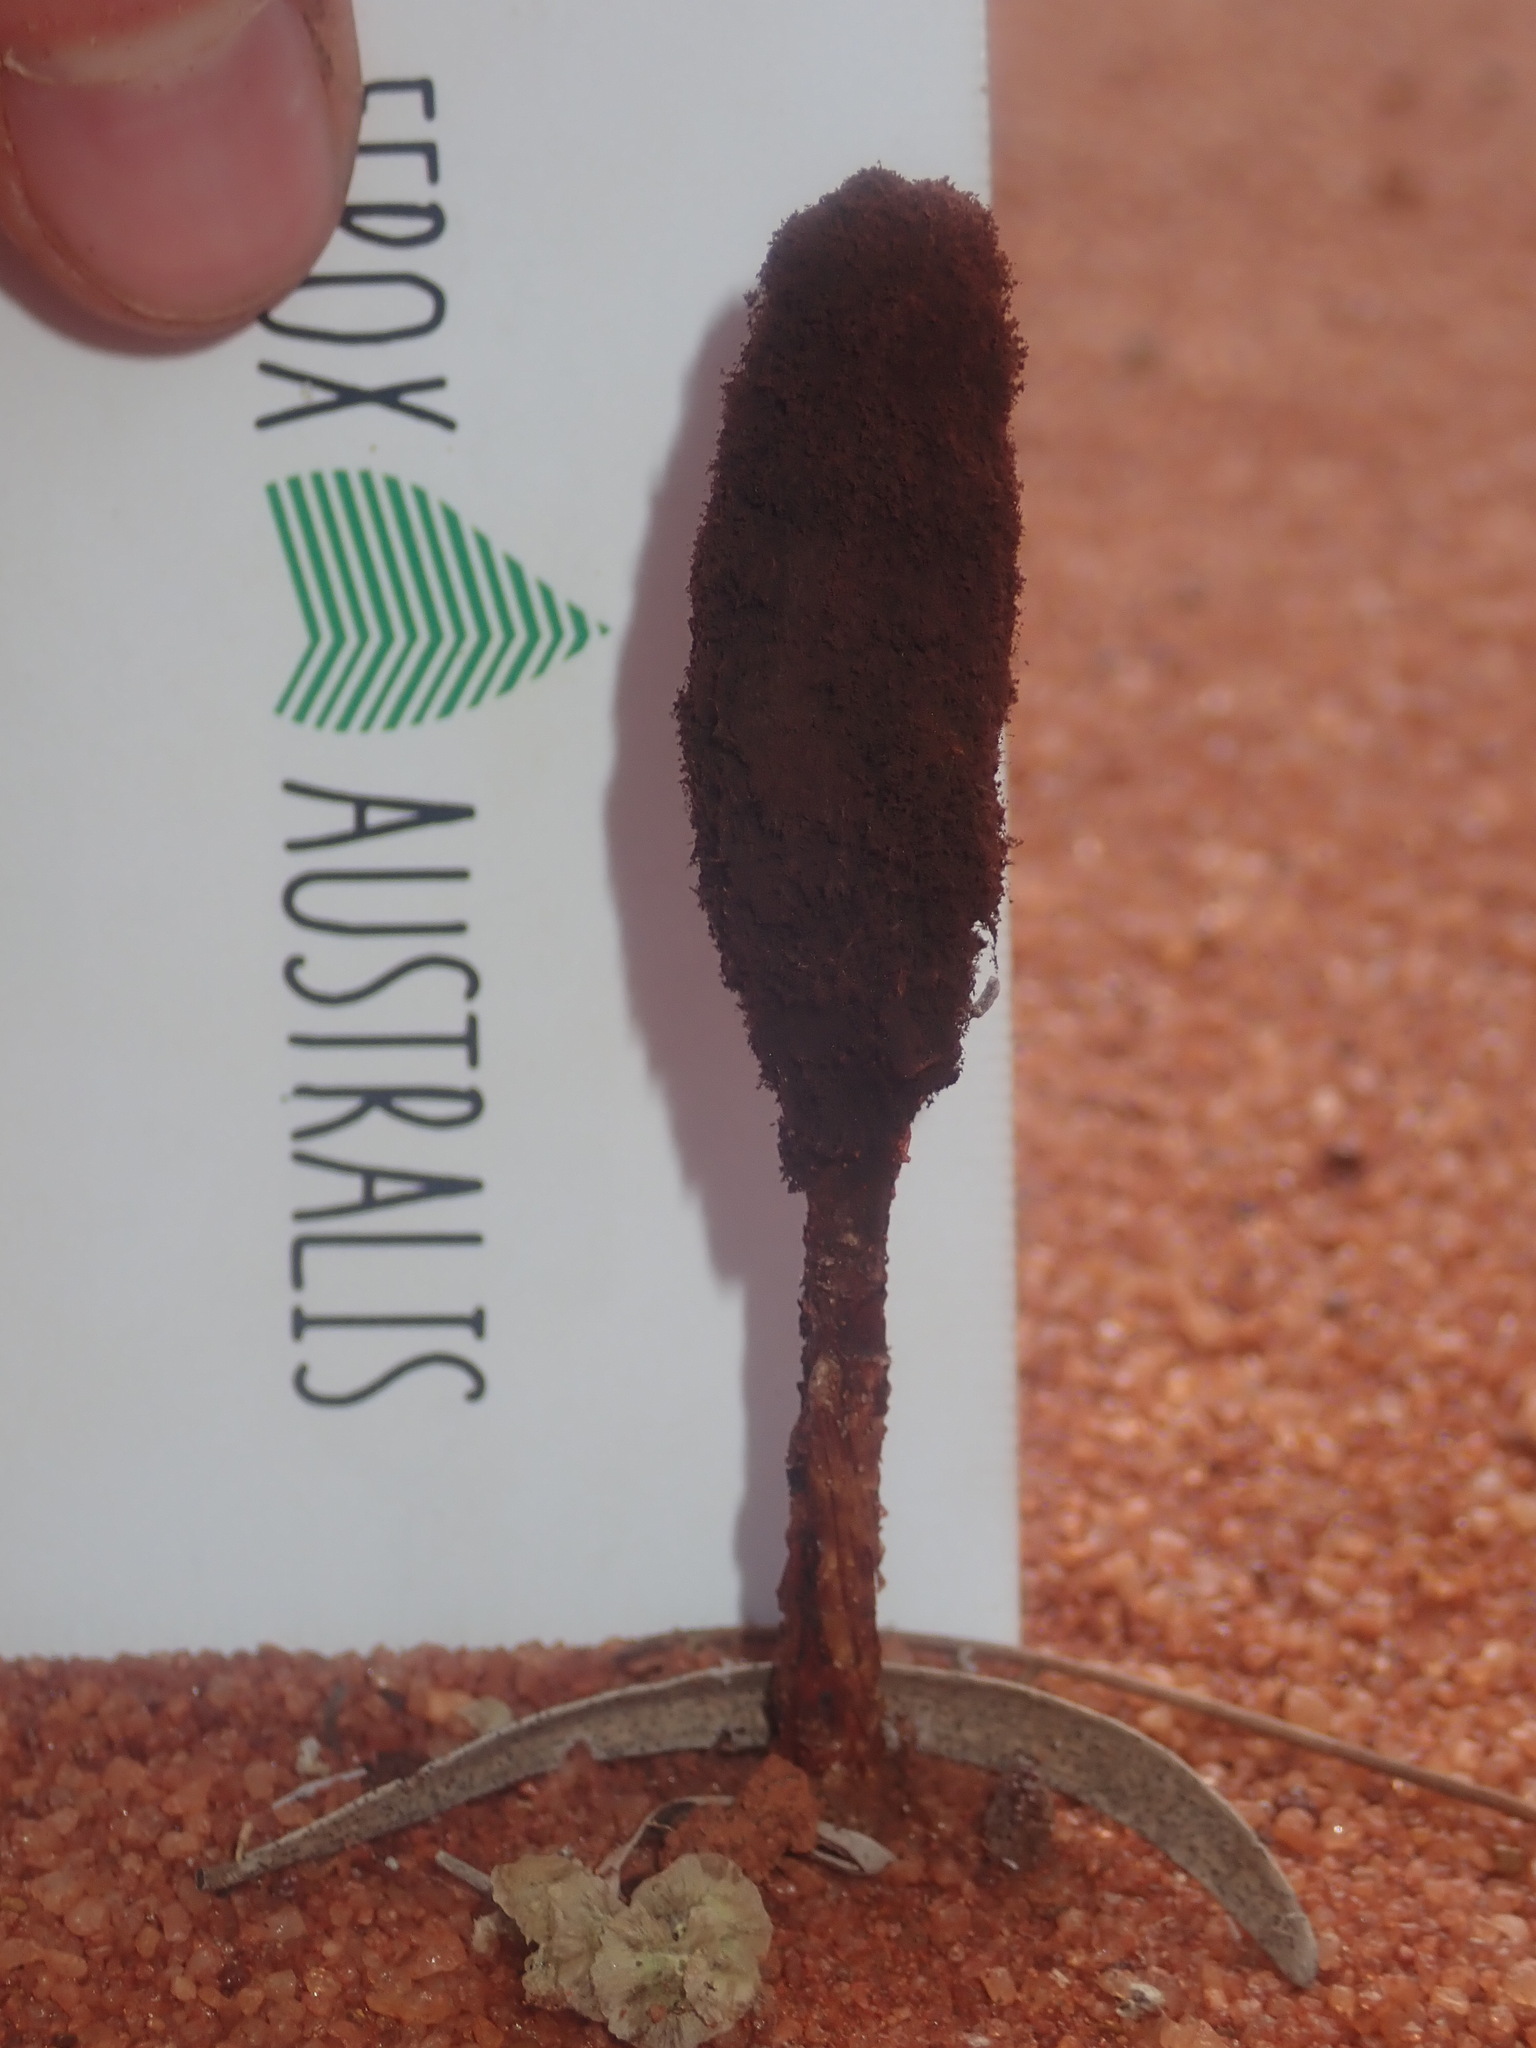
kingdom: Fungi
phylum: Basidiomycota
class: Agaricomycetes
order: Agaricales
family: Agaricaceae
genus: Podaxis
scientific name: Podaxis pistillaris
